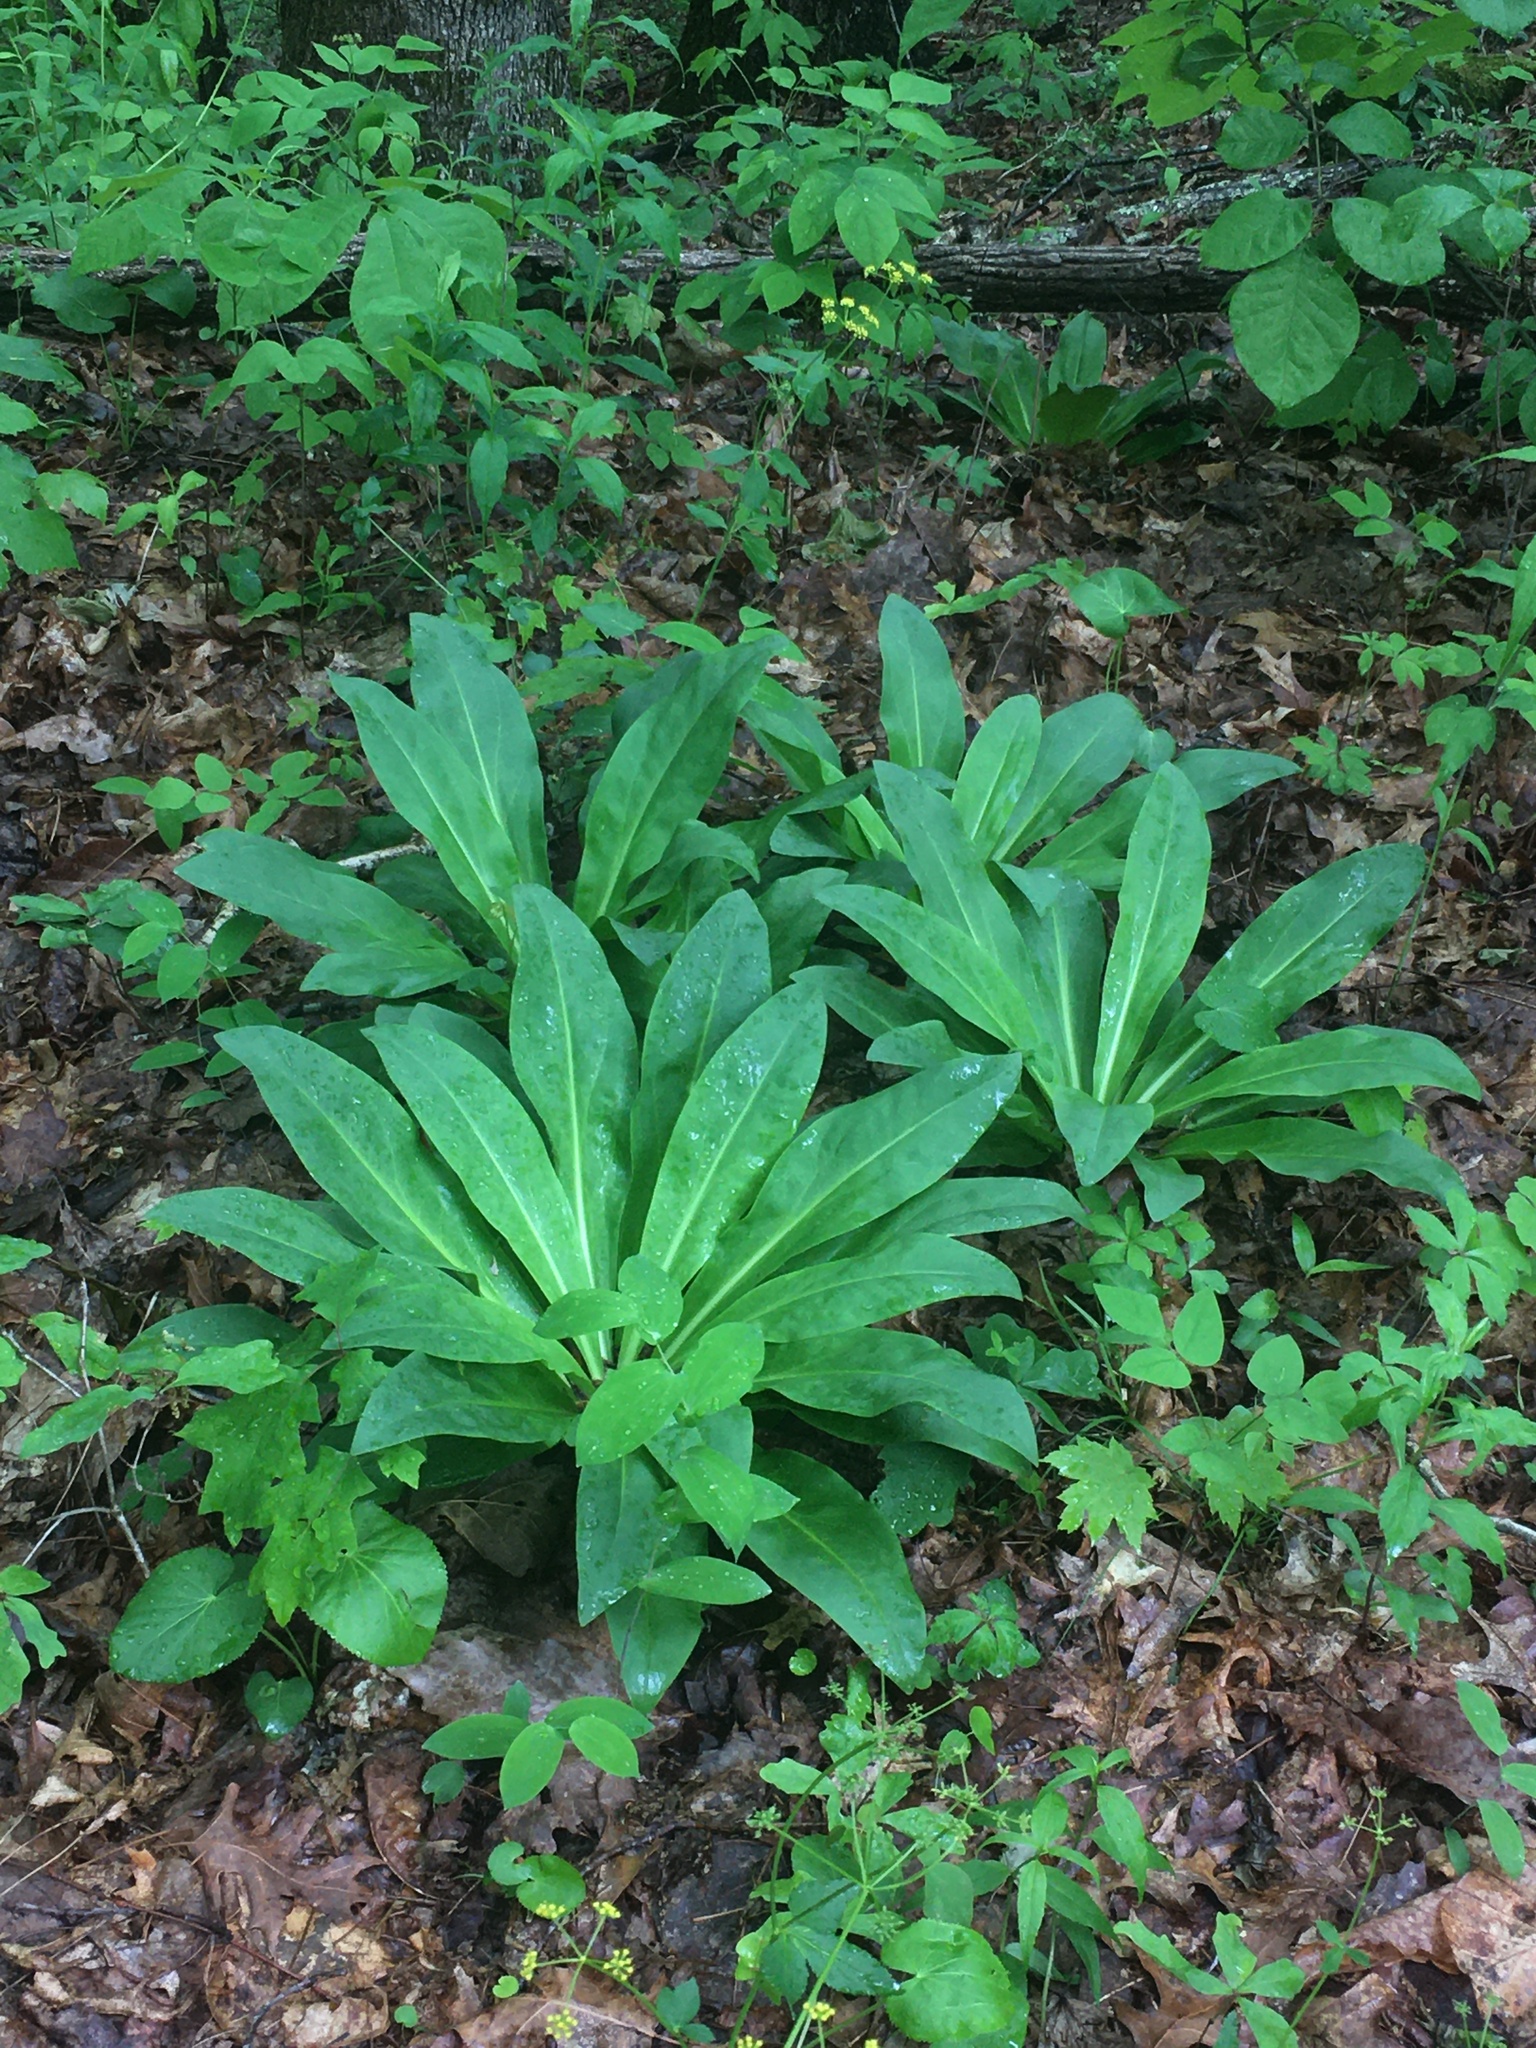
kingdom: Plantae
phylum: Tracheophyta
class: Magnoliopsida
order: Gentianales
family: Gentianaceae
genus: Frasera
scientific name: Frasera caroliniensis
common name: American columbo
